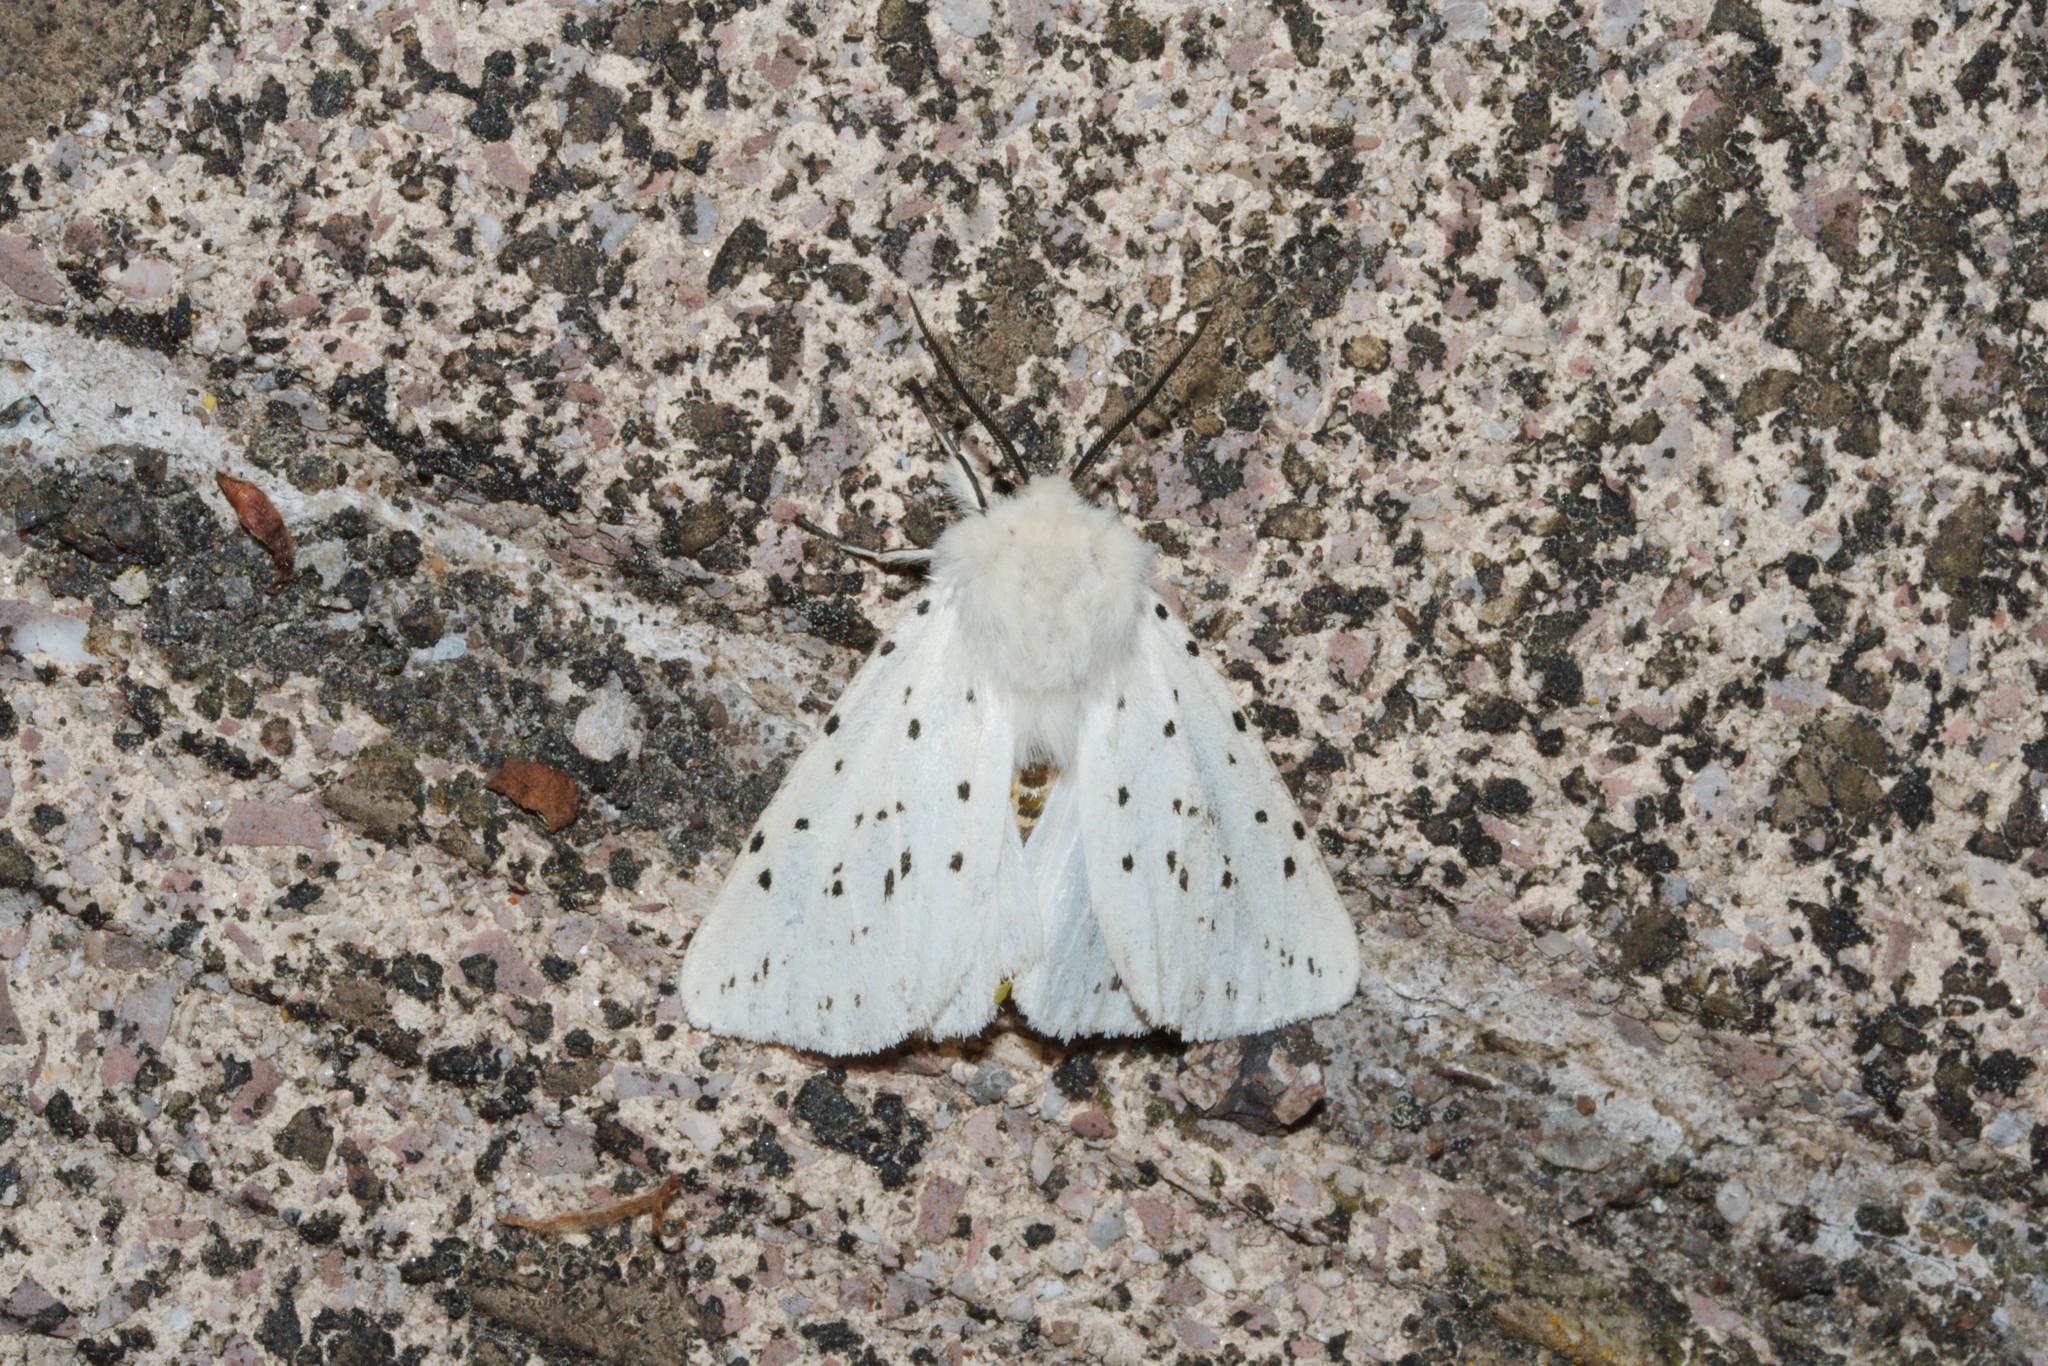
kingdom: Animalia
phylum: Arthropoda
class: Insecta
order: Lepidoptera
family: Erebidae
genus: Spilosoma
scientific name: Spilosoma lubricipeda
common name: White ermine
